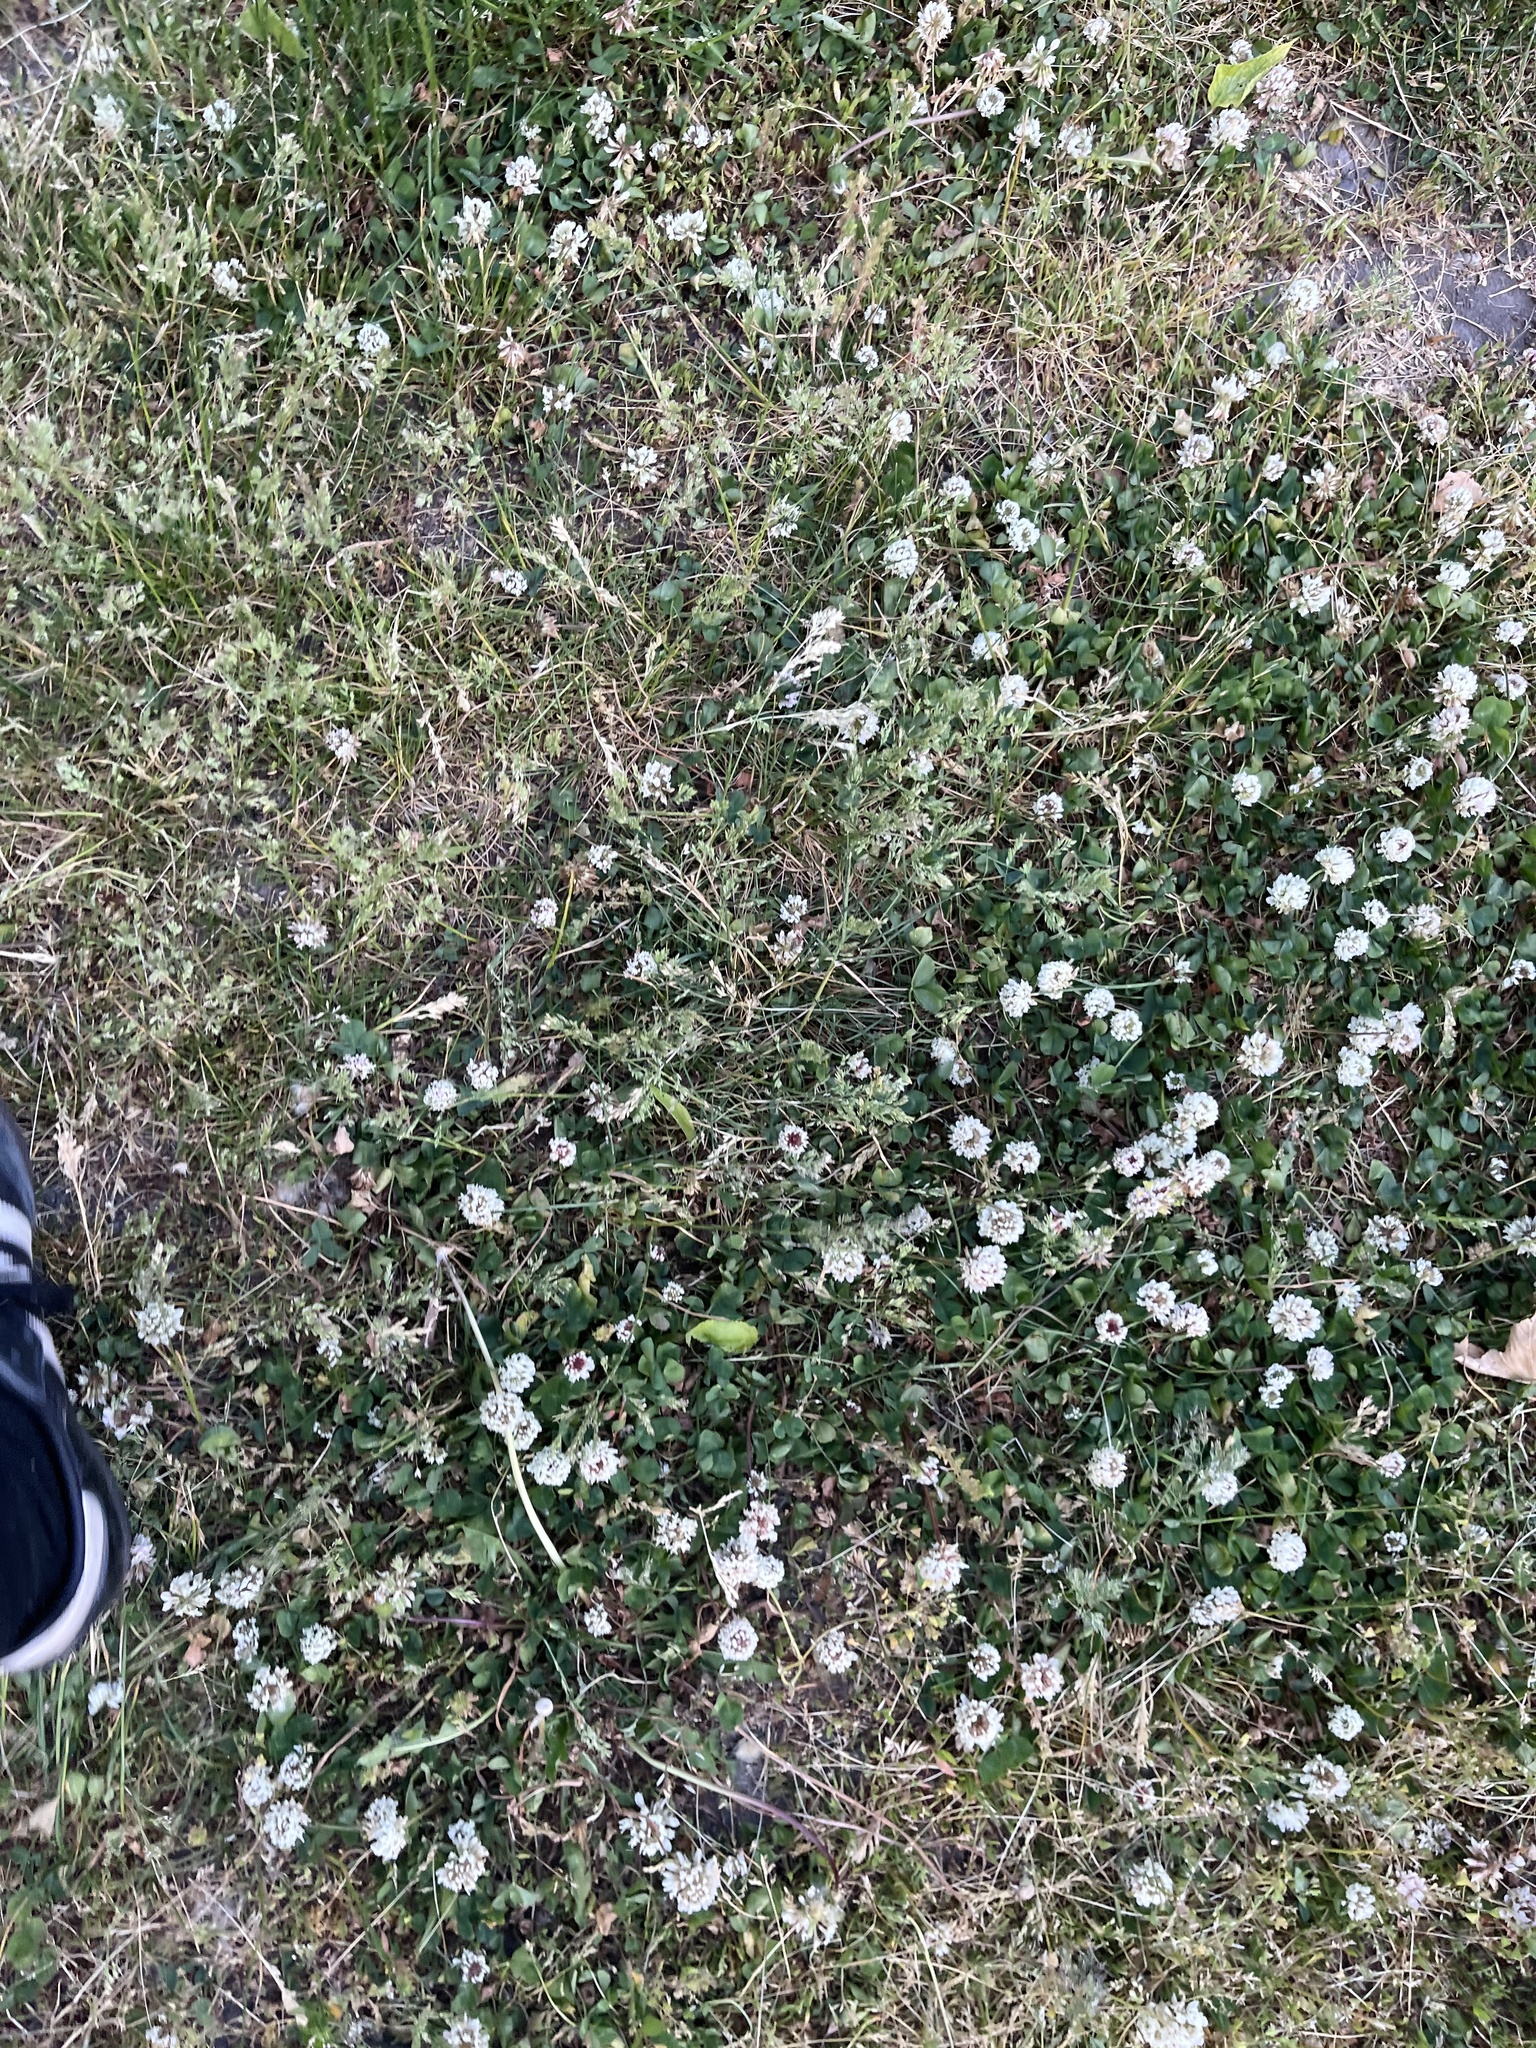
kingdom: Plantae
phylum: Tracheophyta
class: Magnoliopsida
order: Fabales
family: Fabaceae
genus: Trifolium
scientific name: Trifolium repens
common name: White clover
